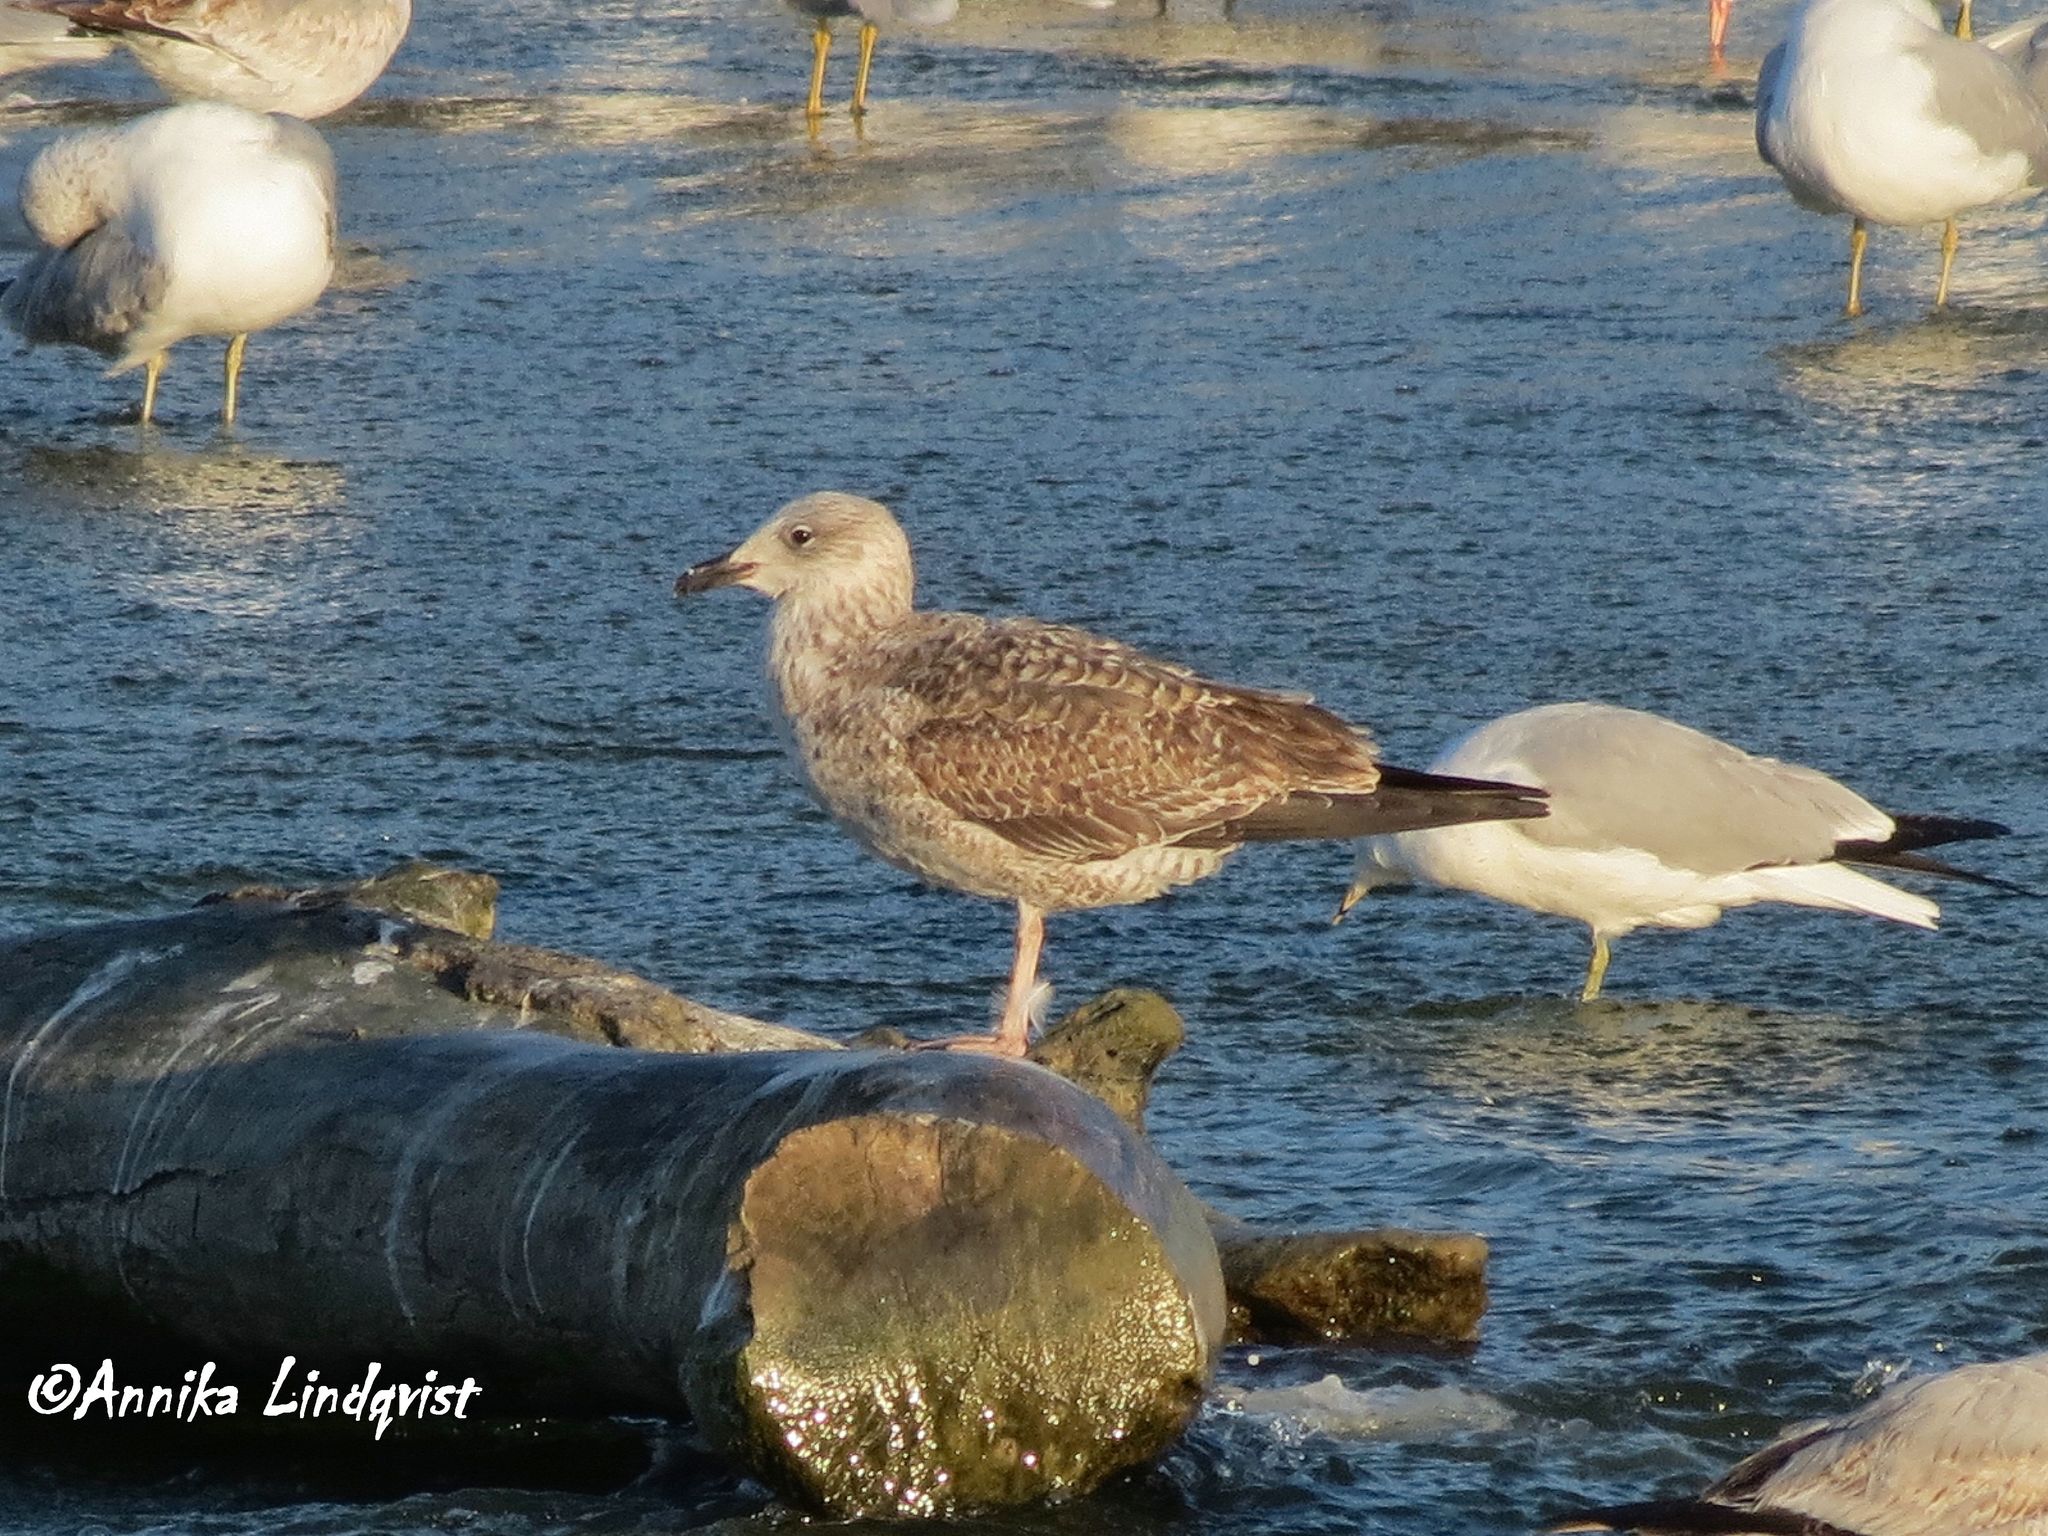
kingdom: Animalia
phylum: Chordata
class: Aves
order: Charadriiformes
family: Laridae
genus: Larus
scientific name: Larus fuscus
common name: Lesser black-backed gull
